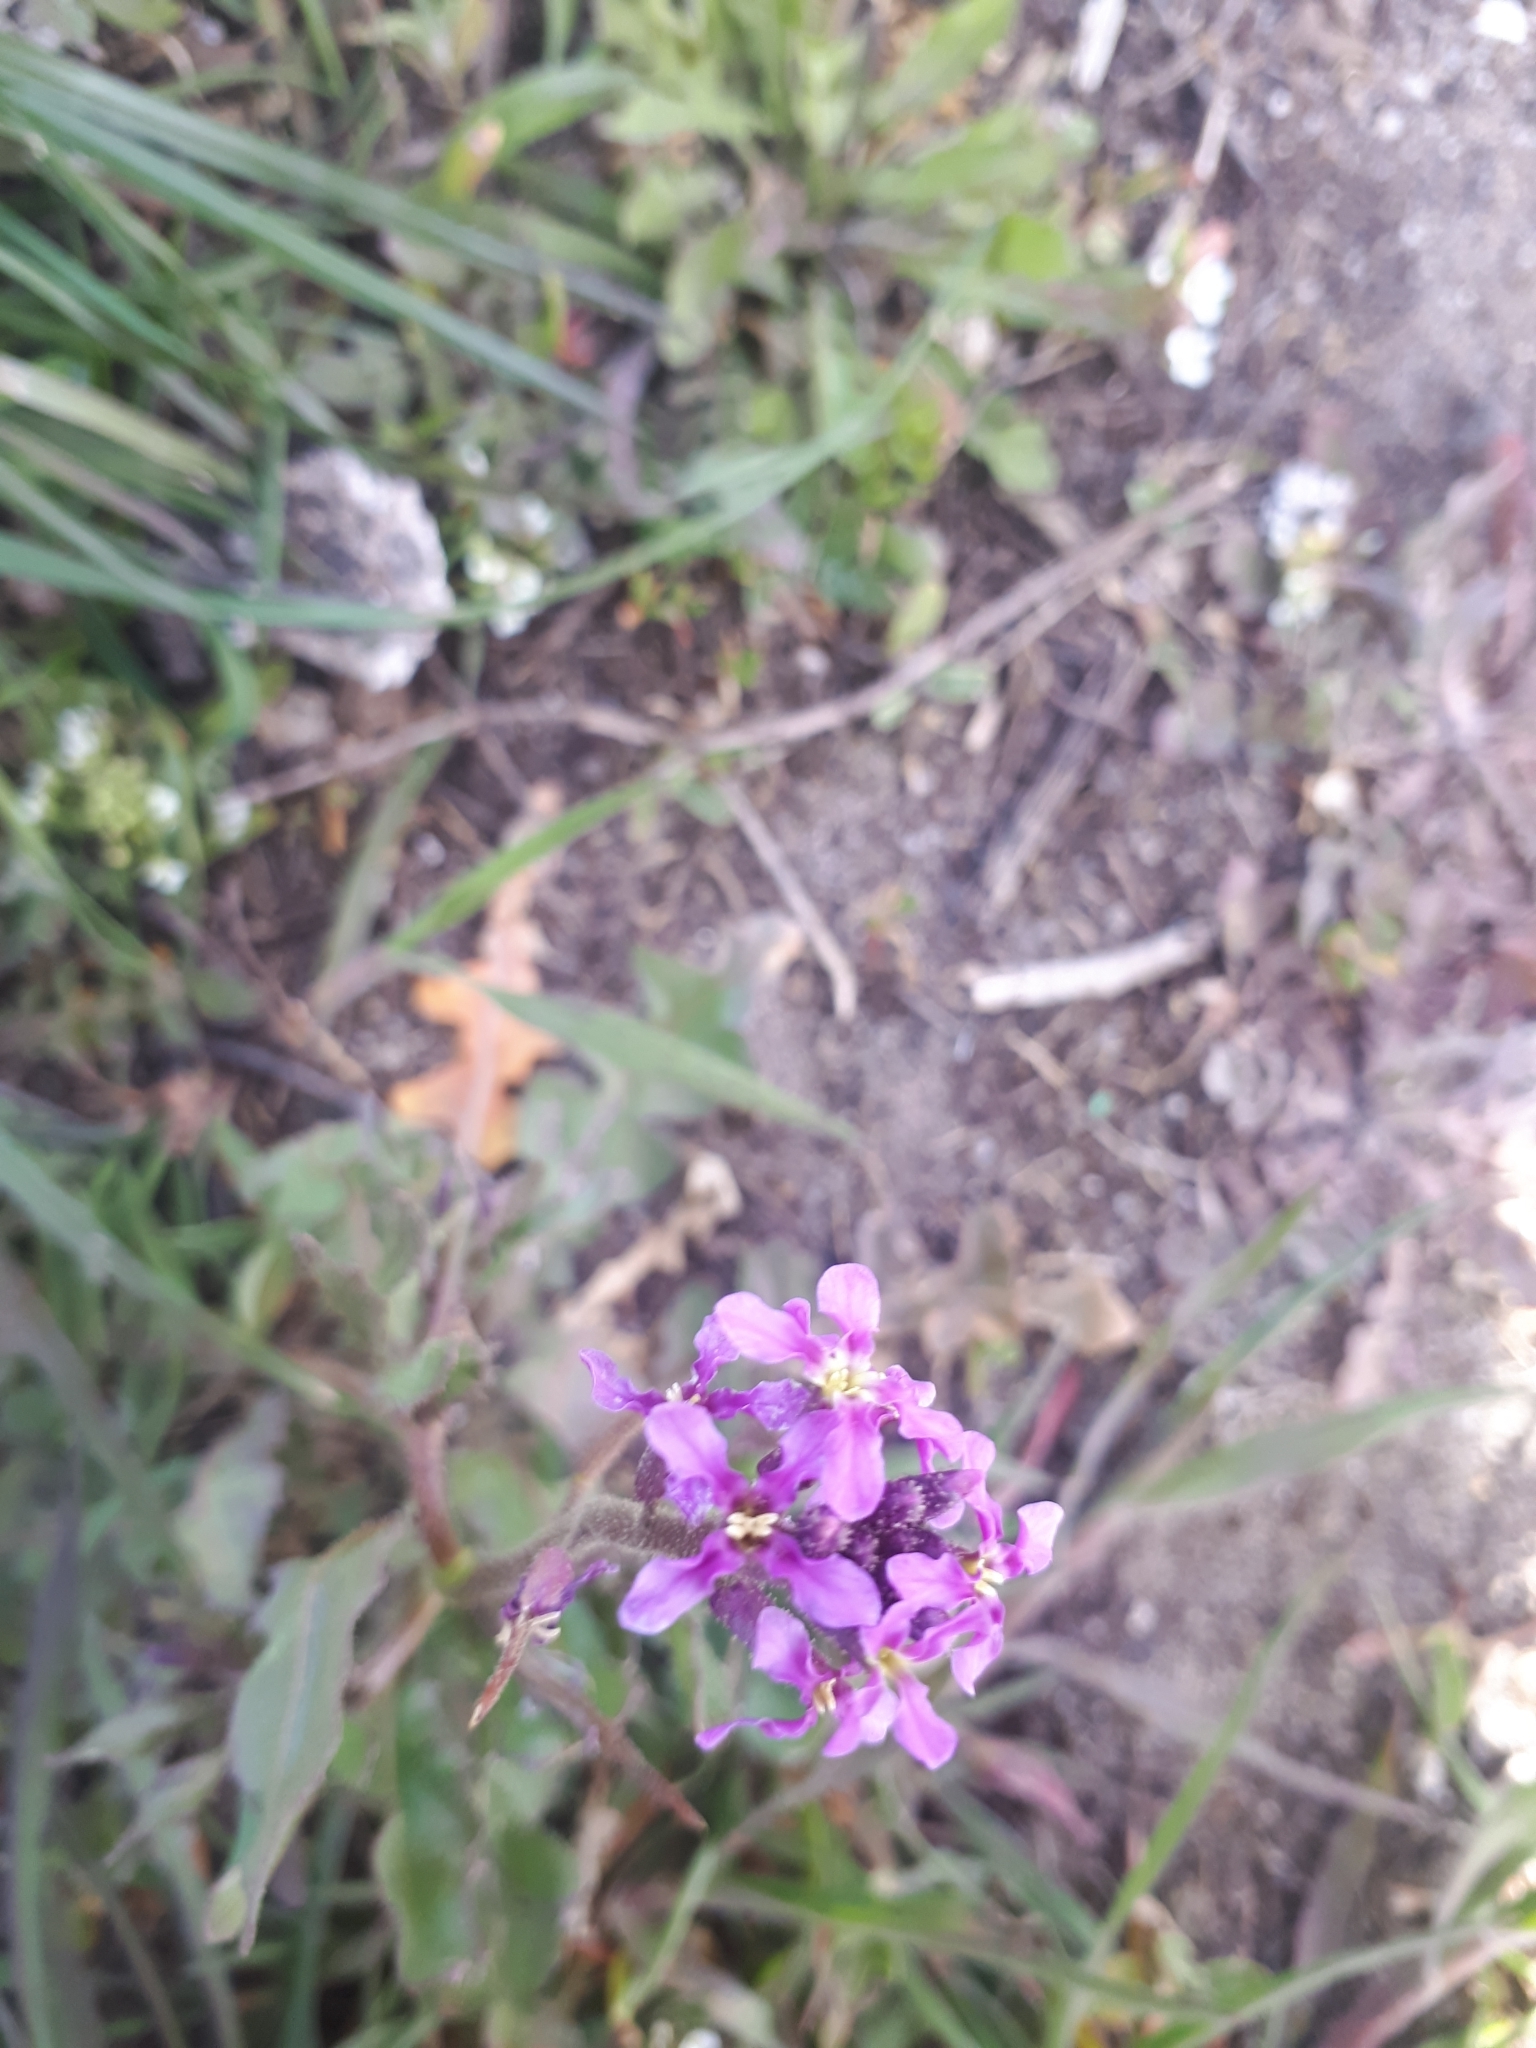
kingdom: Plantae
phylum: Tracheophyta
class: Magnoliopsida
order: Brassicales
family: Brassicaceae
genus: Chorispora
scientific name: Chorispora tenella
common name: Crossflower
